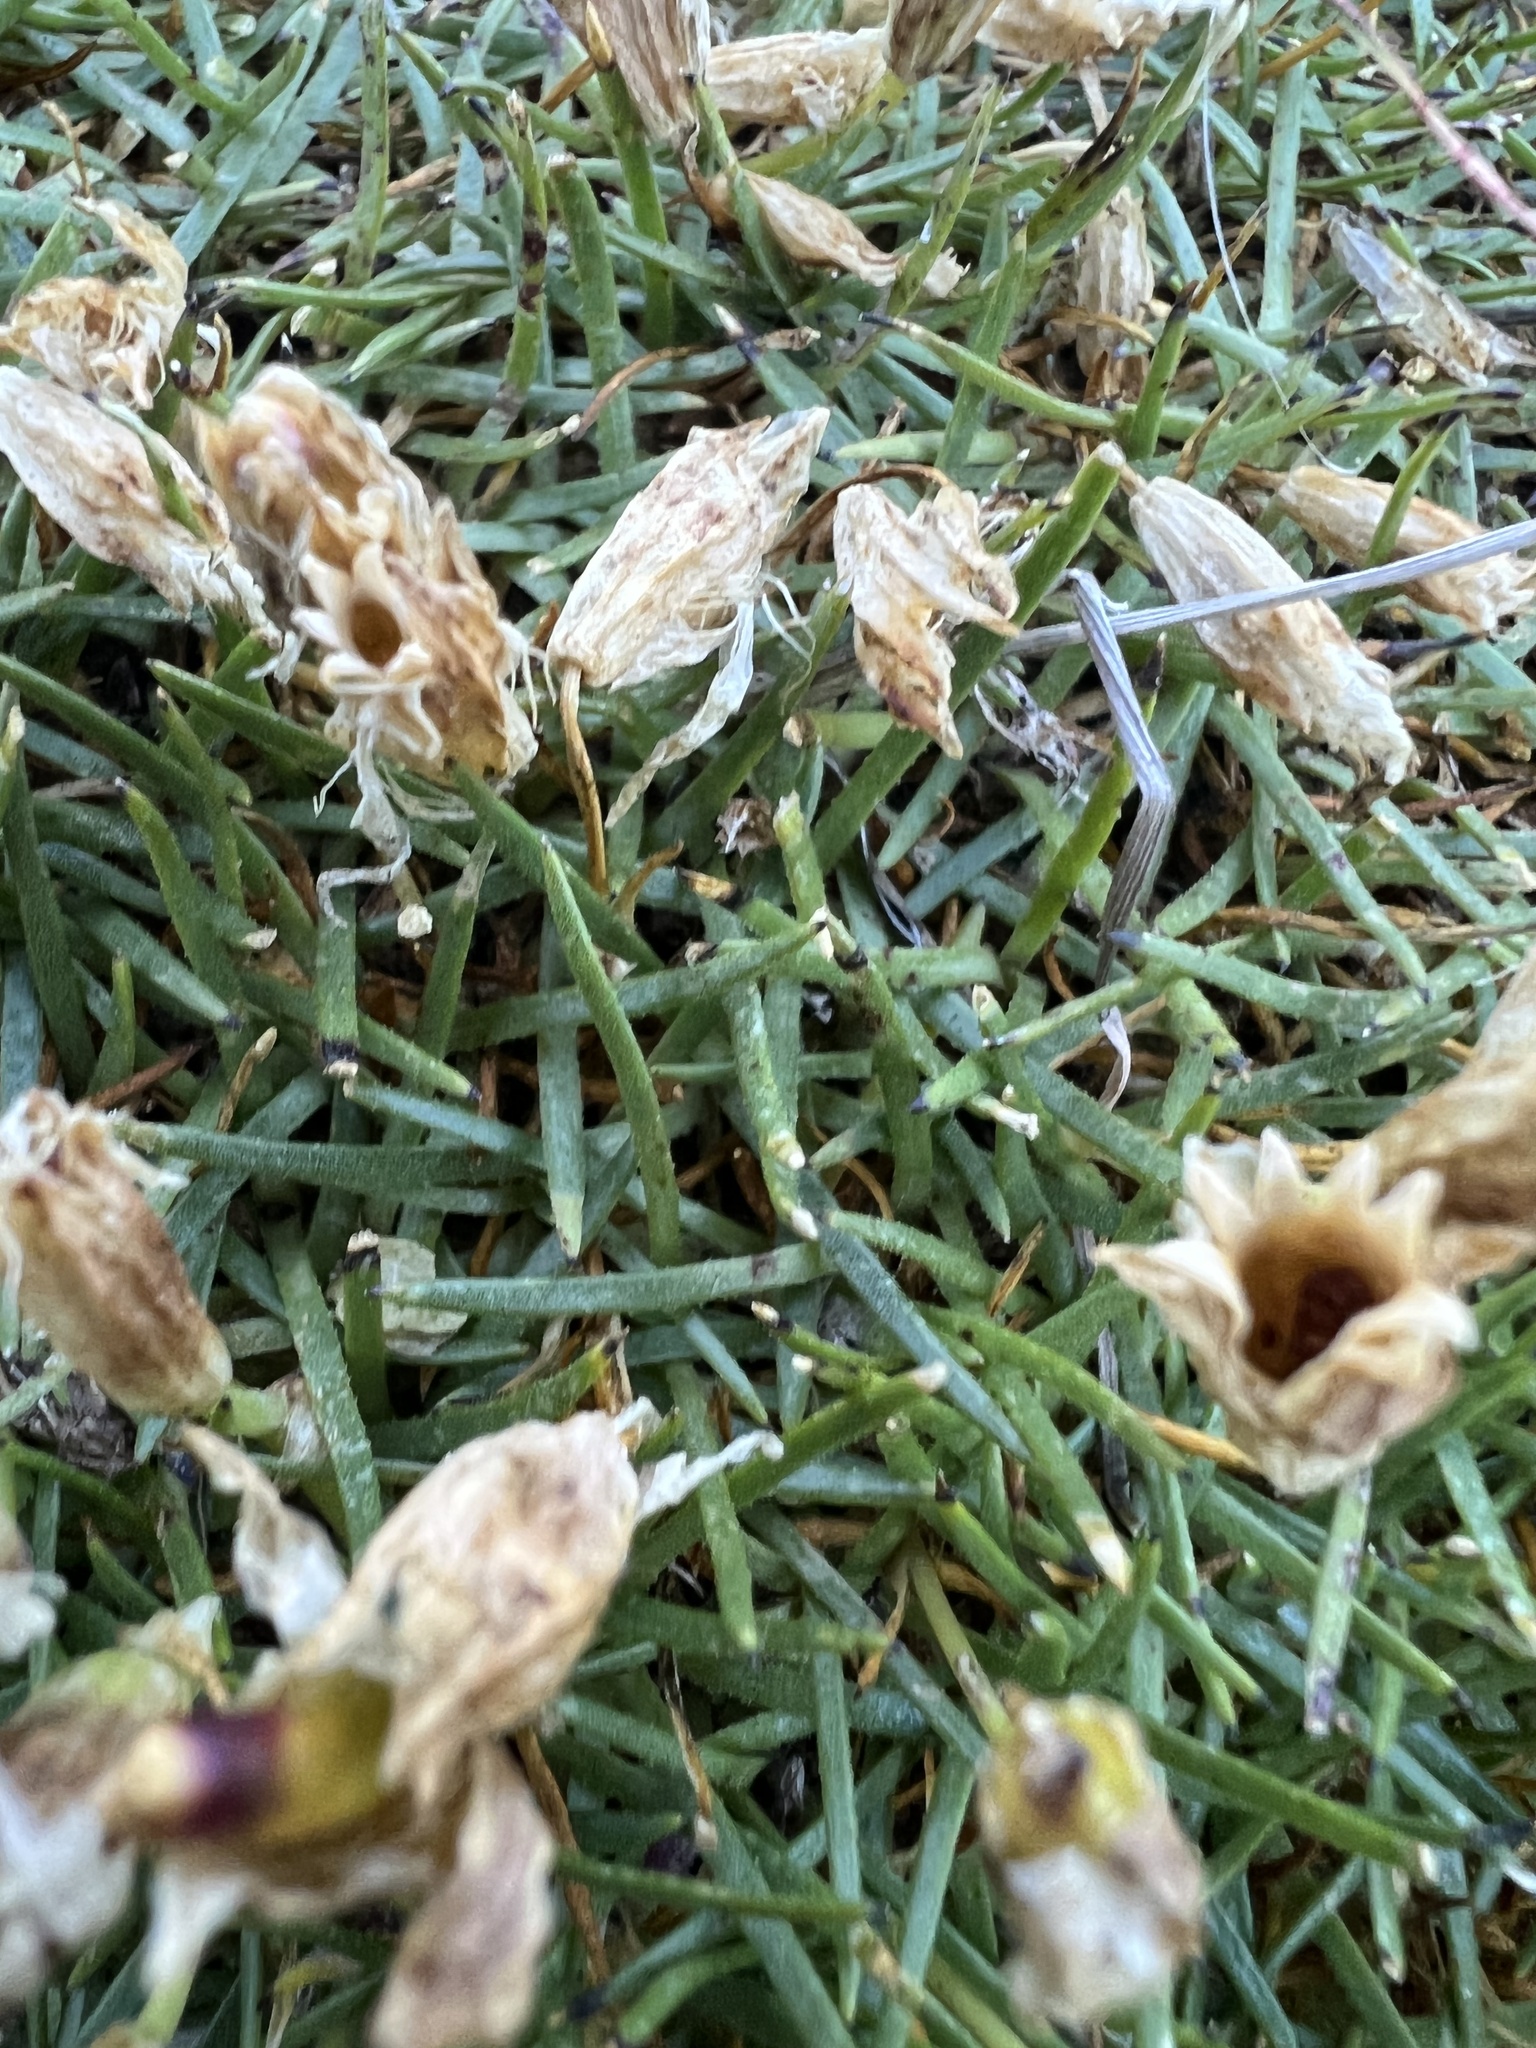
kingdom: Plantae
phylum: Tracheophyta
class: Magnoliopsida
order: Caryophyllales
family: Caryophyllaceae
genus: Silene
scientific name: Silene acaulis
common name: Moss campion
